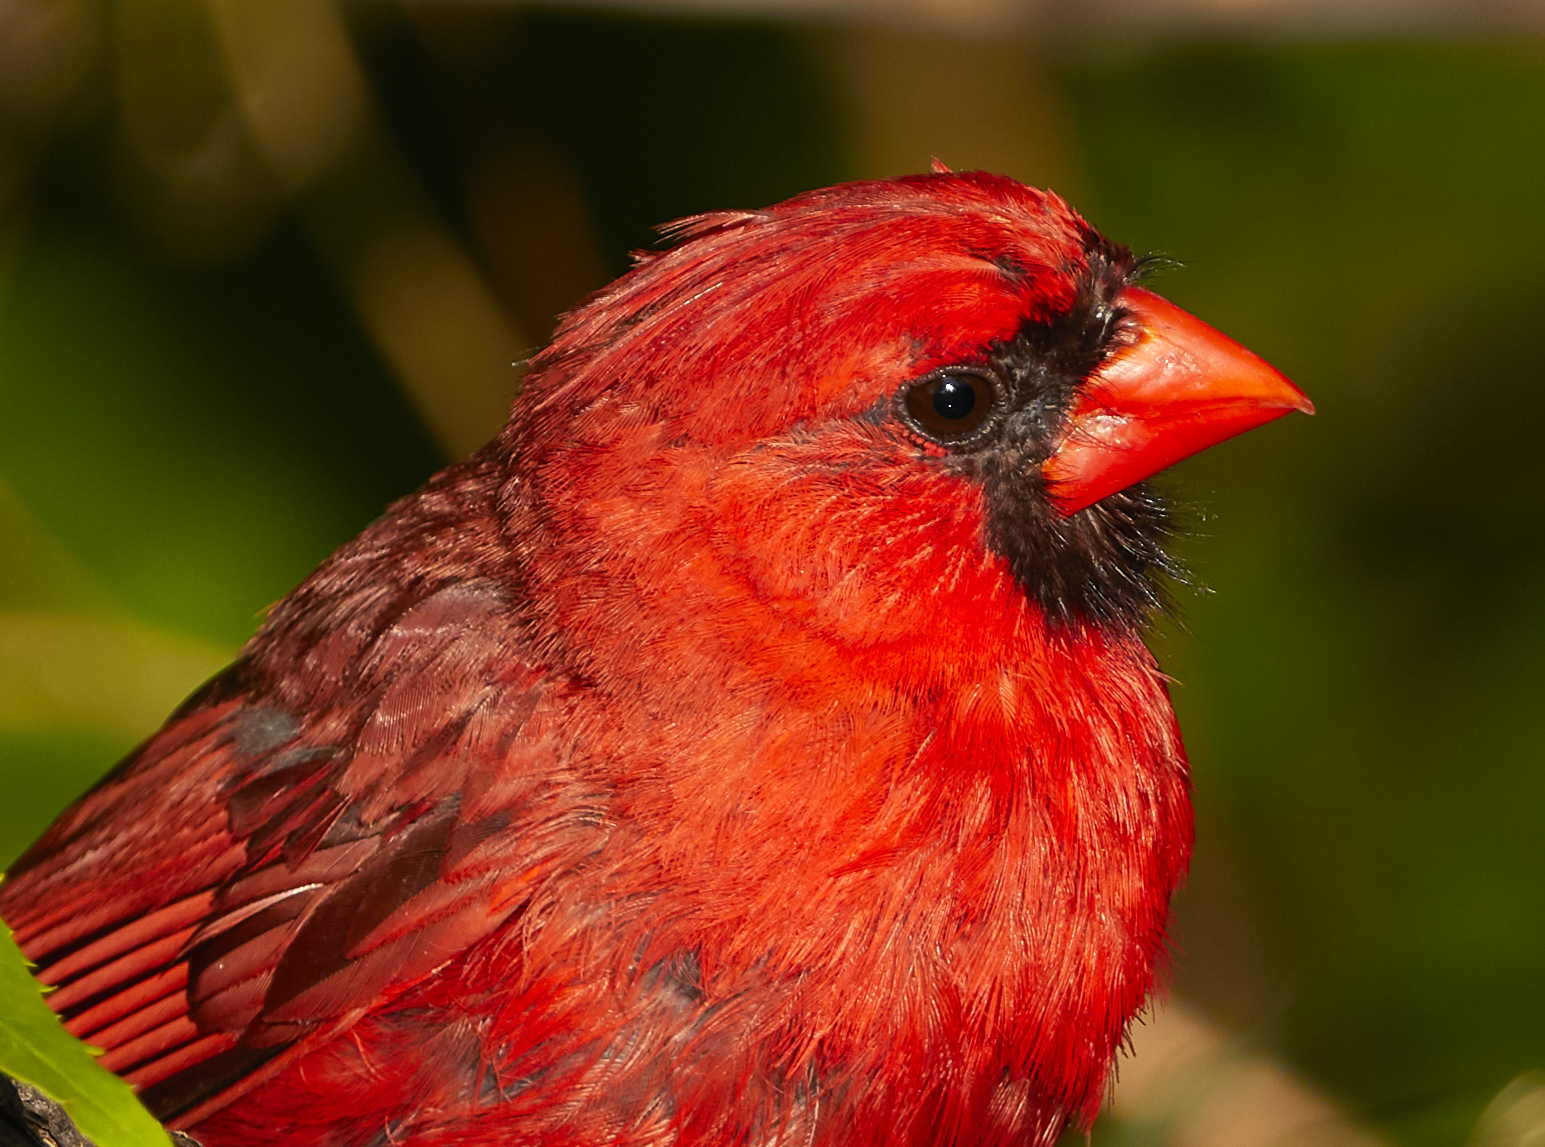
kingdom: Animalia
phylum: Chordata
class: Aves
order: Passeriformes
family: Cardinalidae
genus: Cardinalis
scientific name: Cardinalis cardinalis
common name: Northern cardinal
